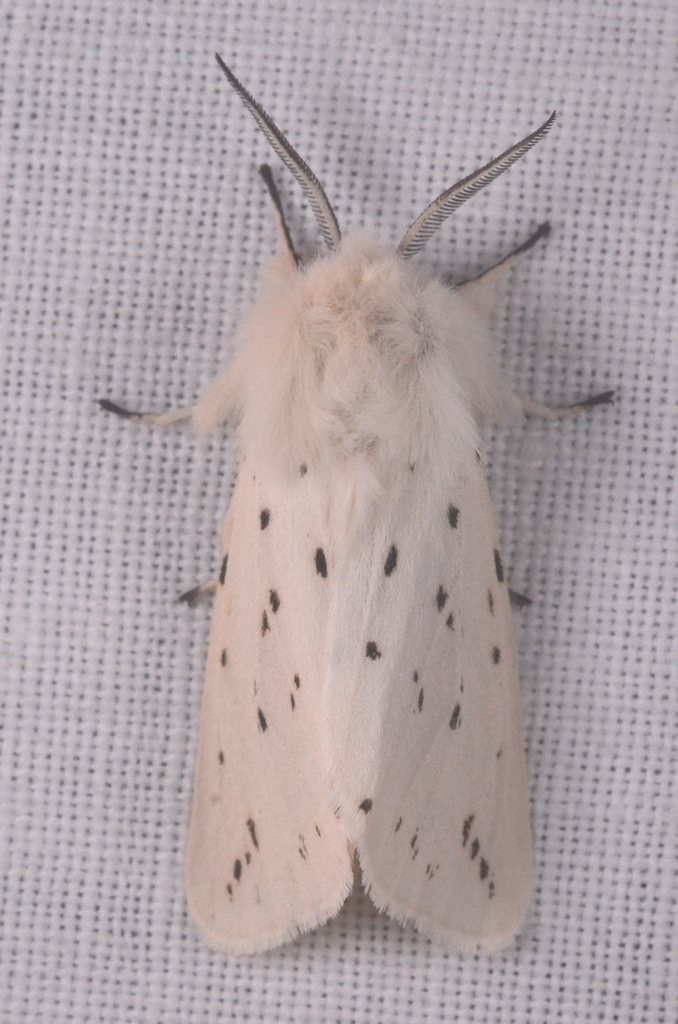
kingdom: Animalia
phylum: Arthropoda
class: Insecta
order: Lepidoptera
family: Erebidae
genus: Spilosoma
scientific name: Spilosoma lubricipeda
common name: White ermine
